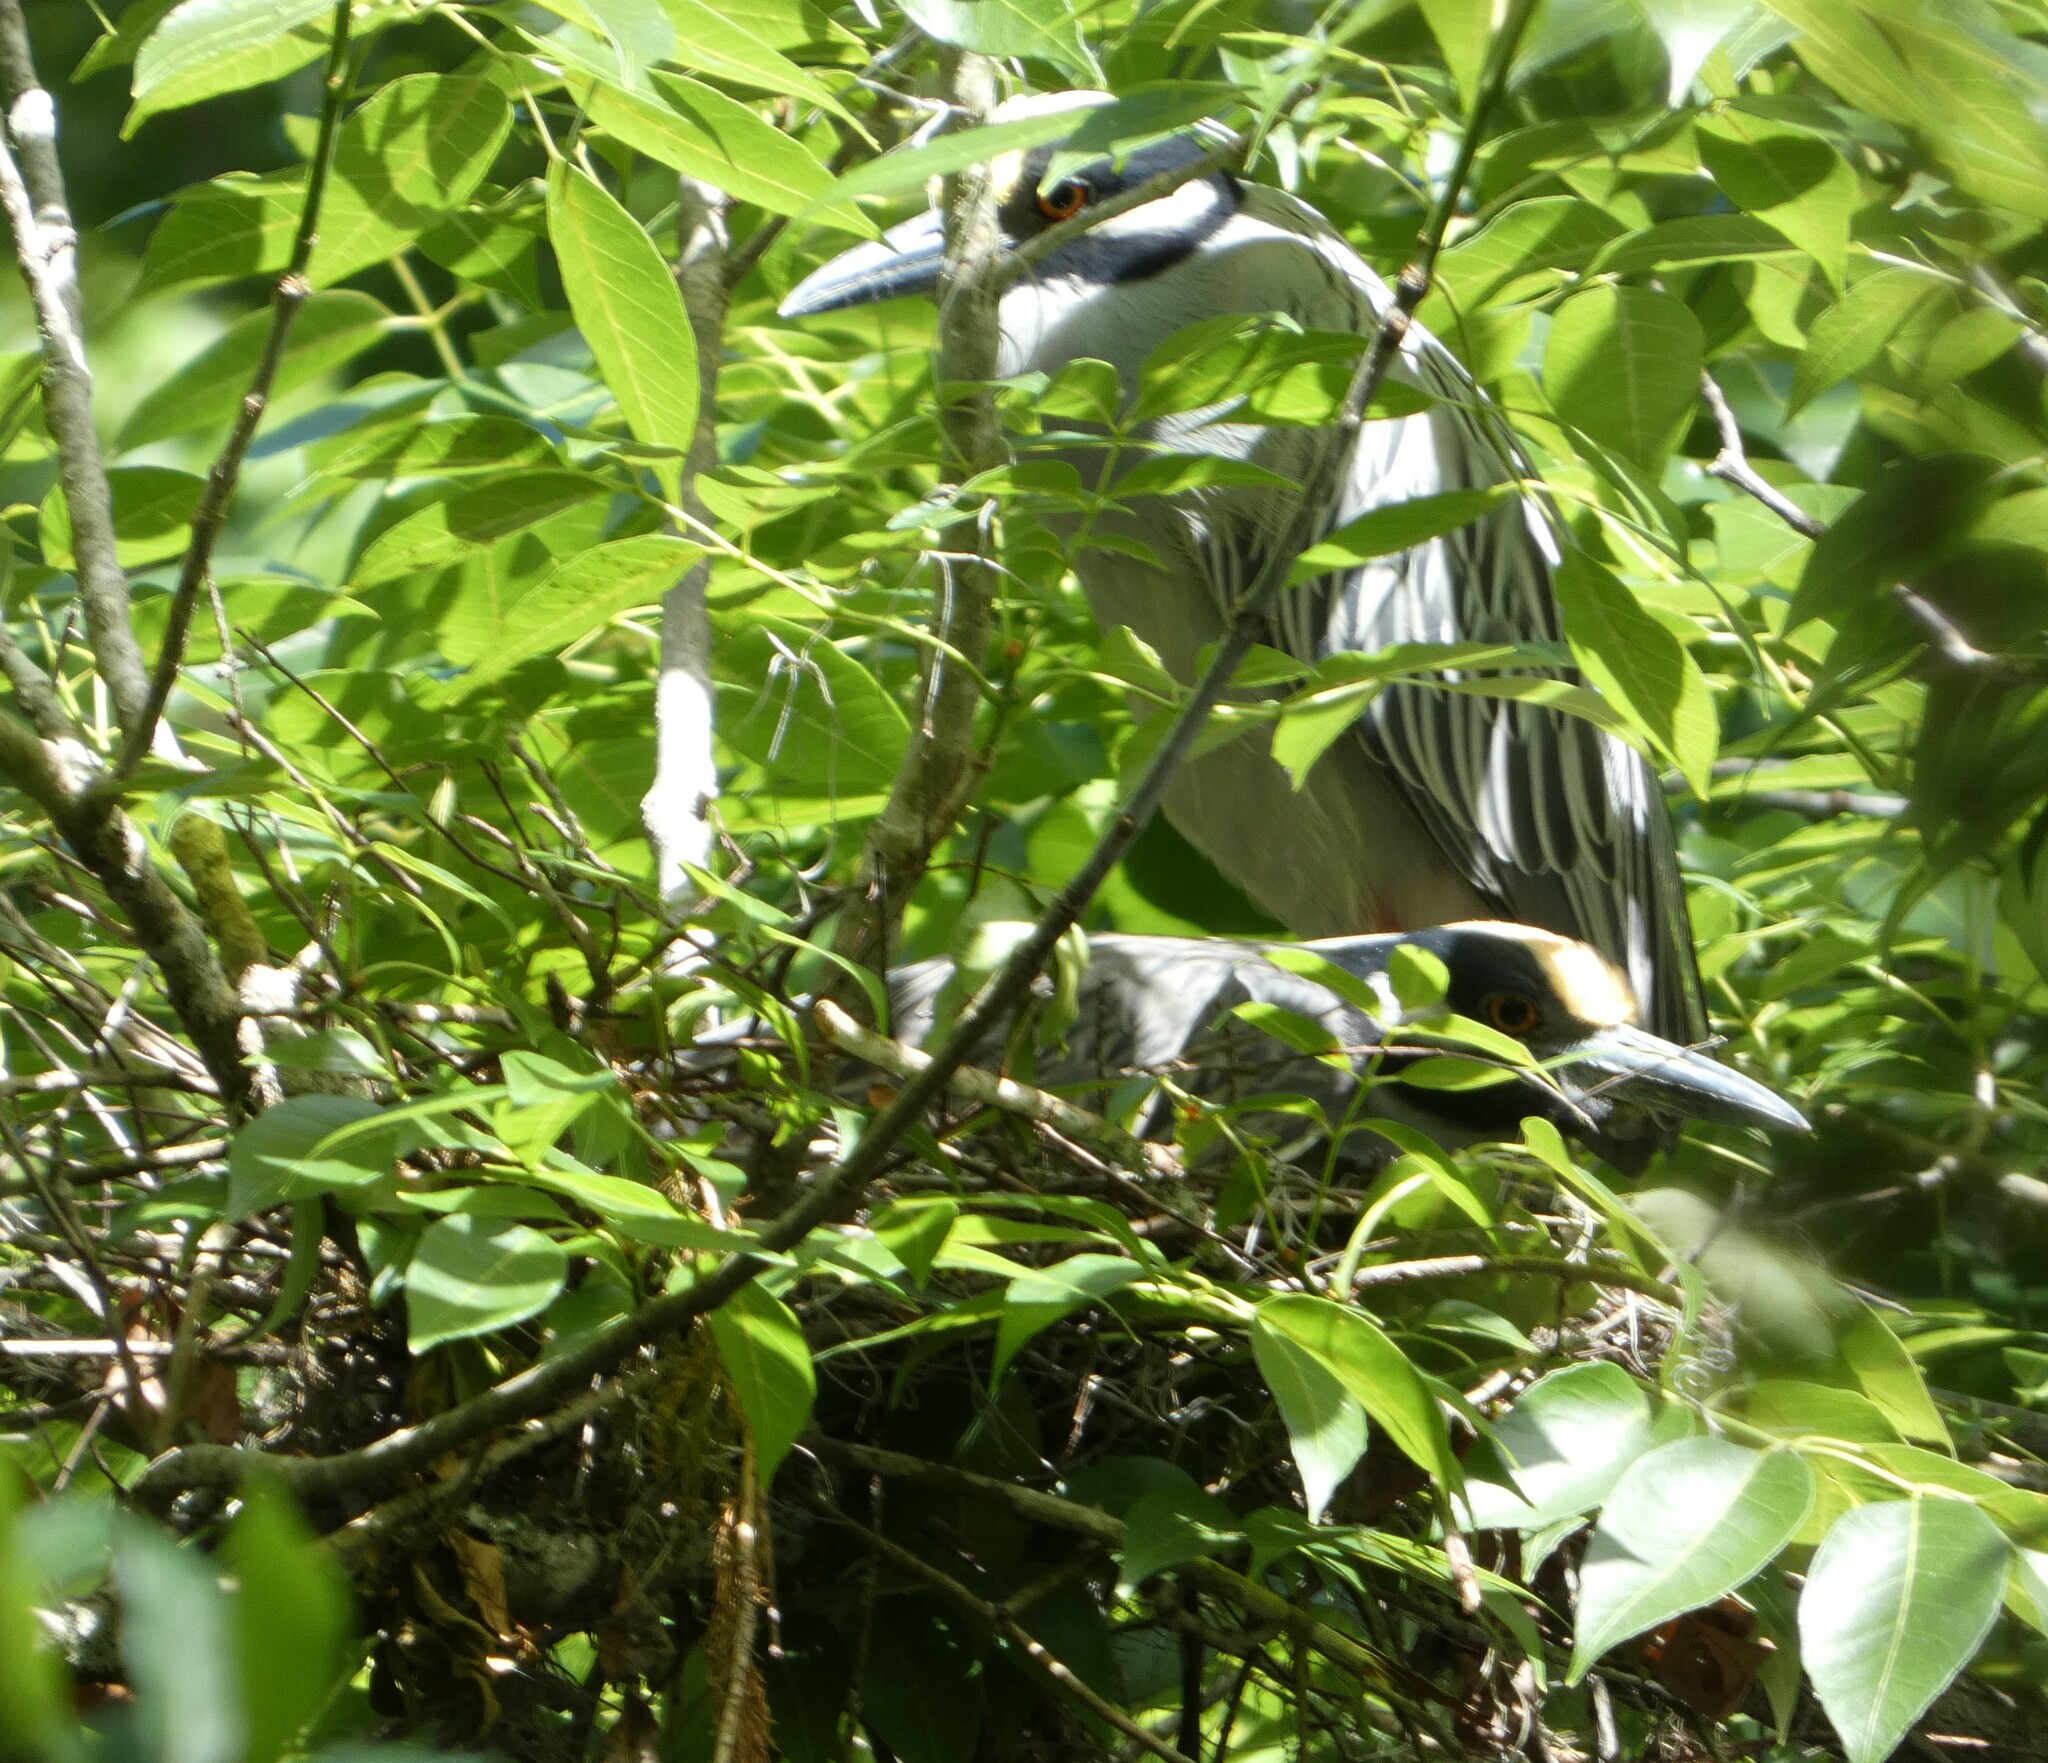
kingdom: Animalia
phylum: Chordata
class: Aves
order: Pelecaniformes
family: Ardeidae
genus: Nyctanassa
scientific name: Nyctanassa violacea
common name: Yellow-crowned night heron
